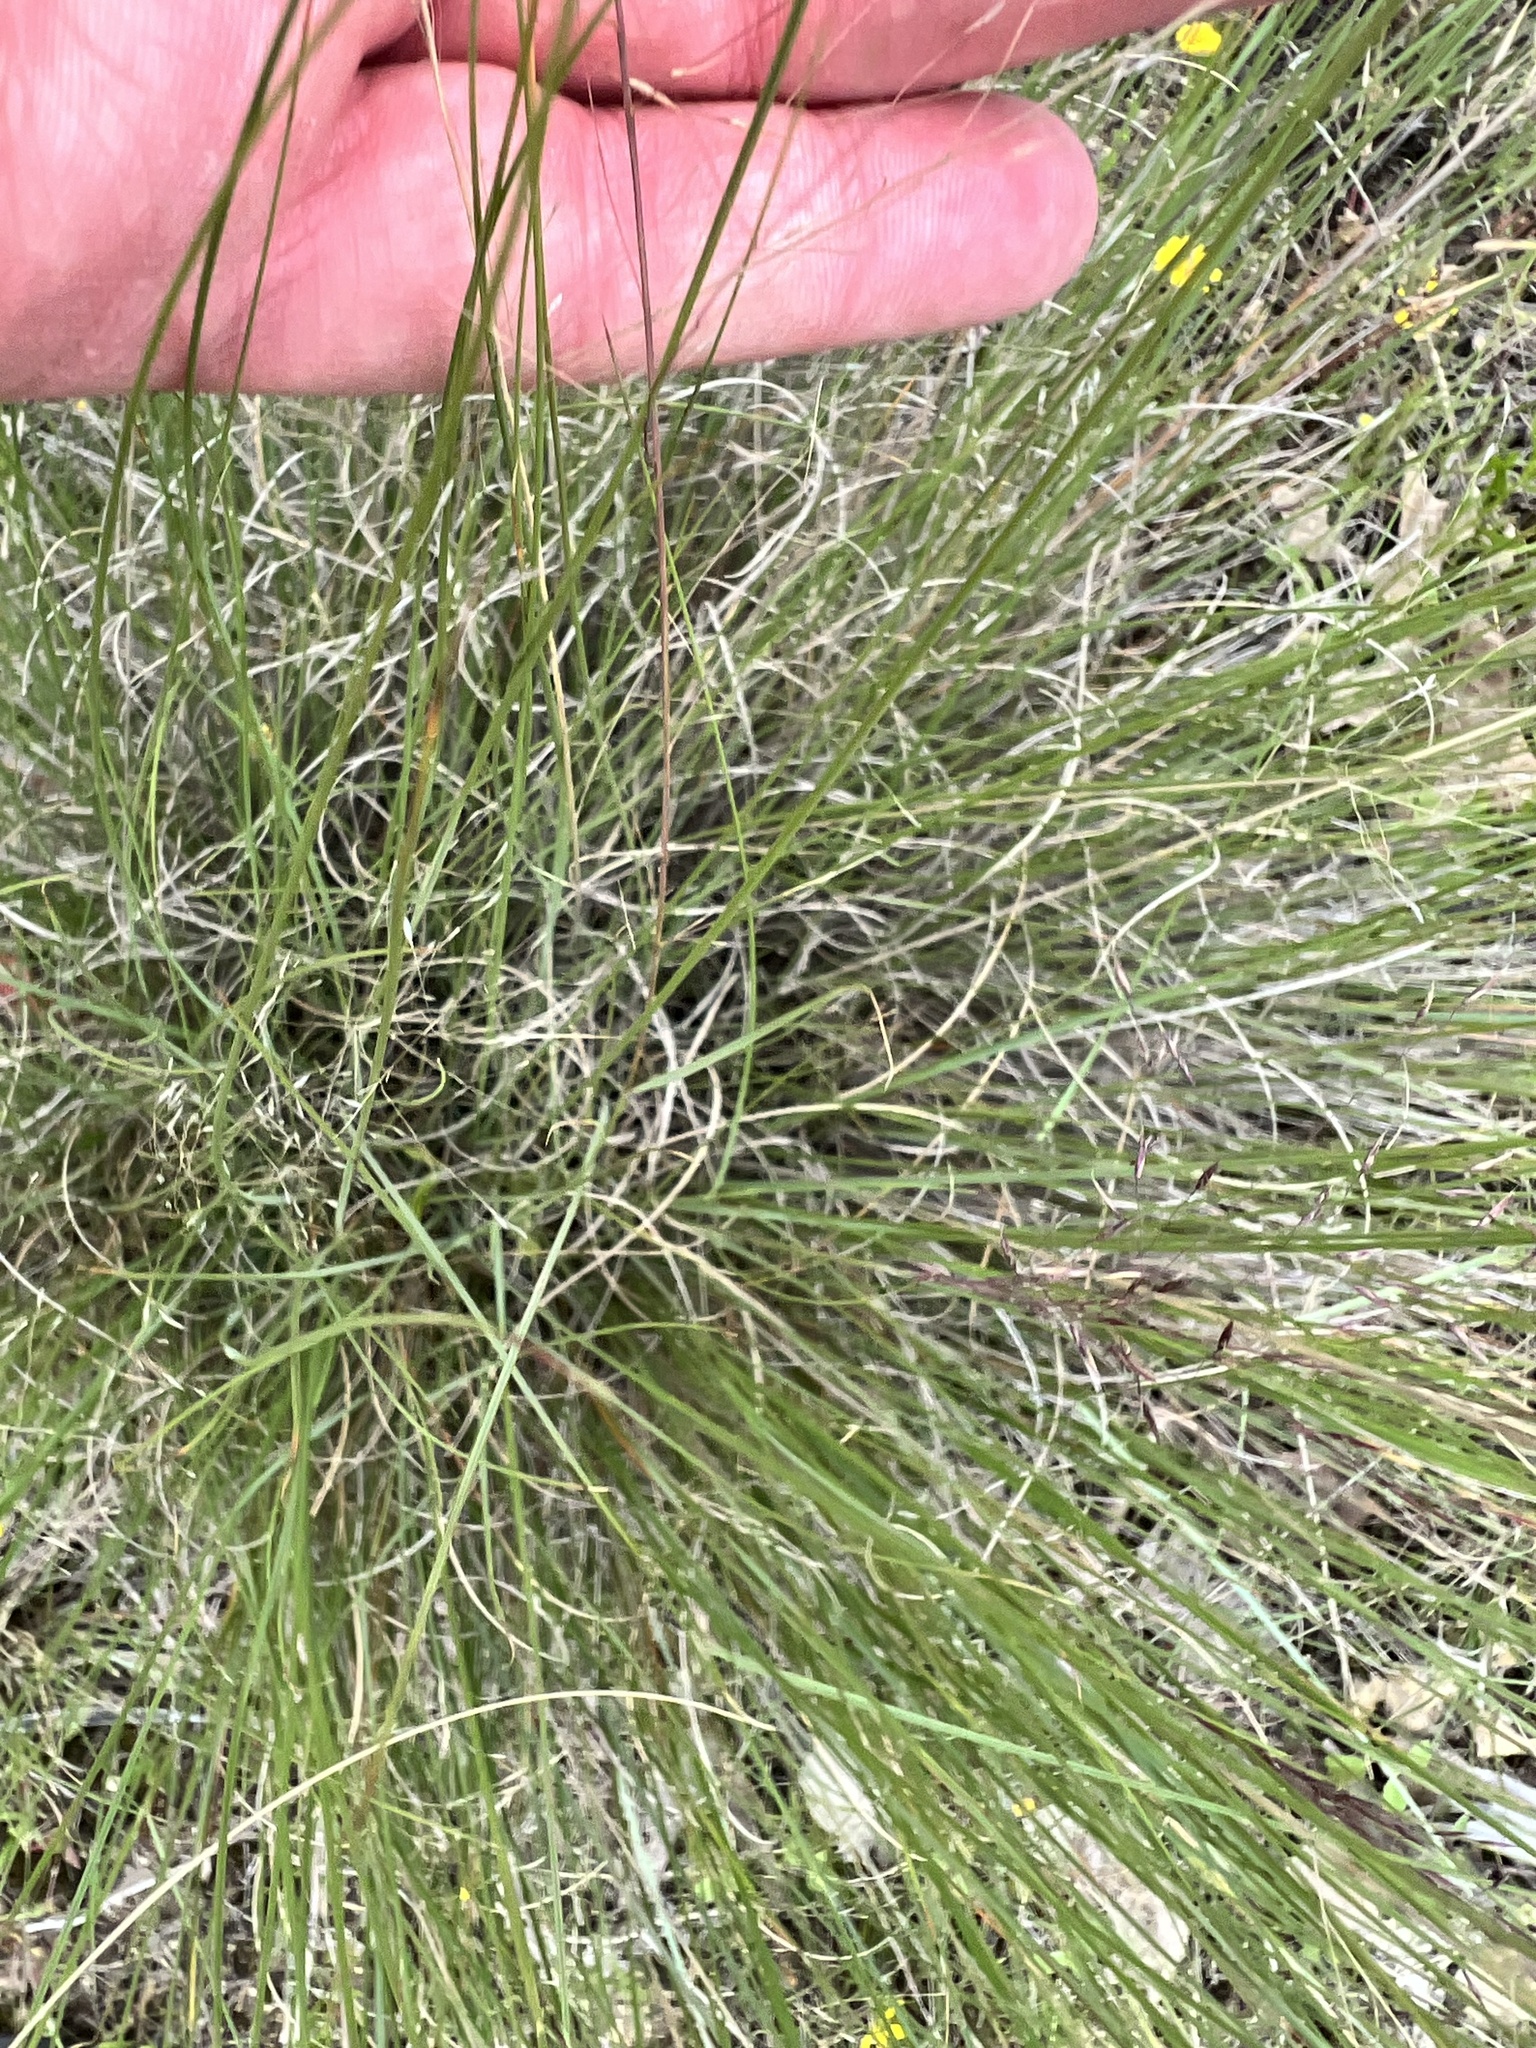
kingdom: Plantae
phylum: Tracheophyta
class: Liliopsida
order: Poales
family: Poaceae
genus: Muhlenbergia
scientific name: Muhlenbergia reverchonii
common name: Seep muhly
